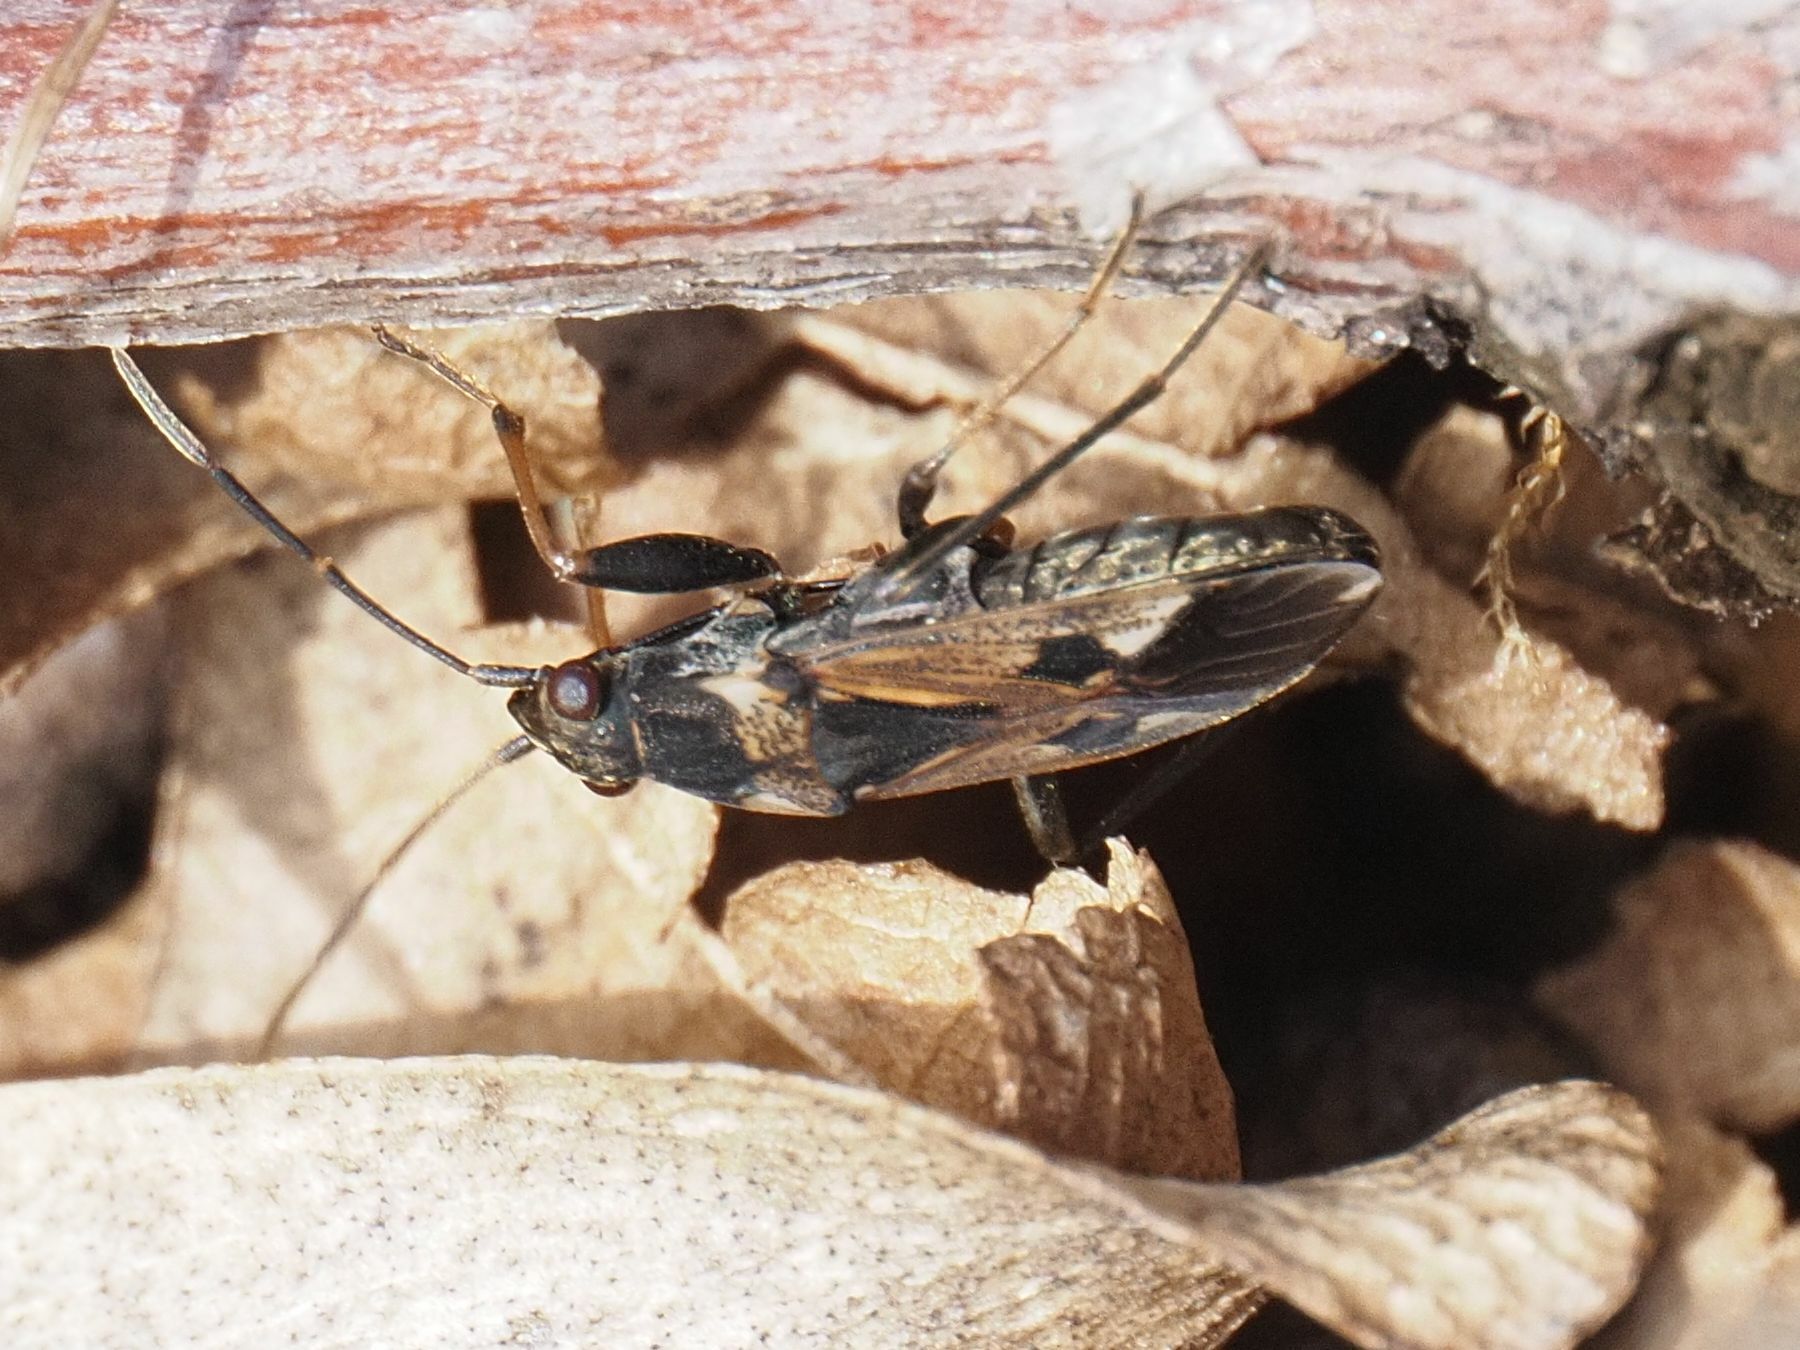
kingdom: Animalia
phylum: Arthropoda
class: Insecta
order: Hemiptera
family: Rhyparochromidae
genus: Rhyparochromus
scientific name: Rhyparochromus vulgaris
